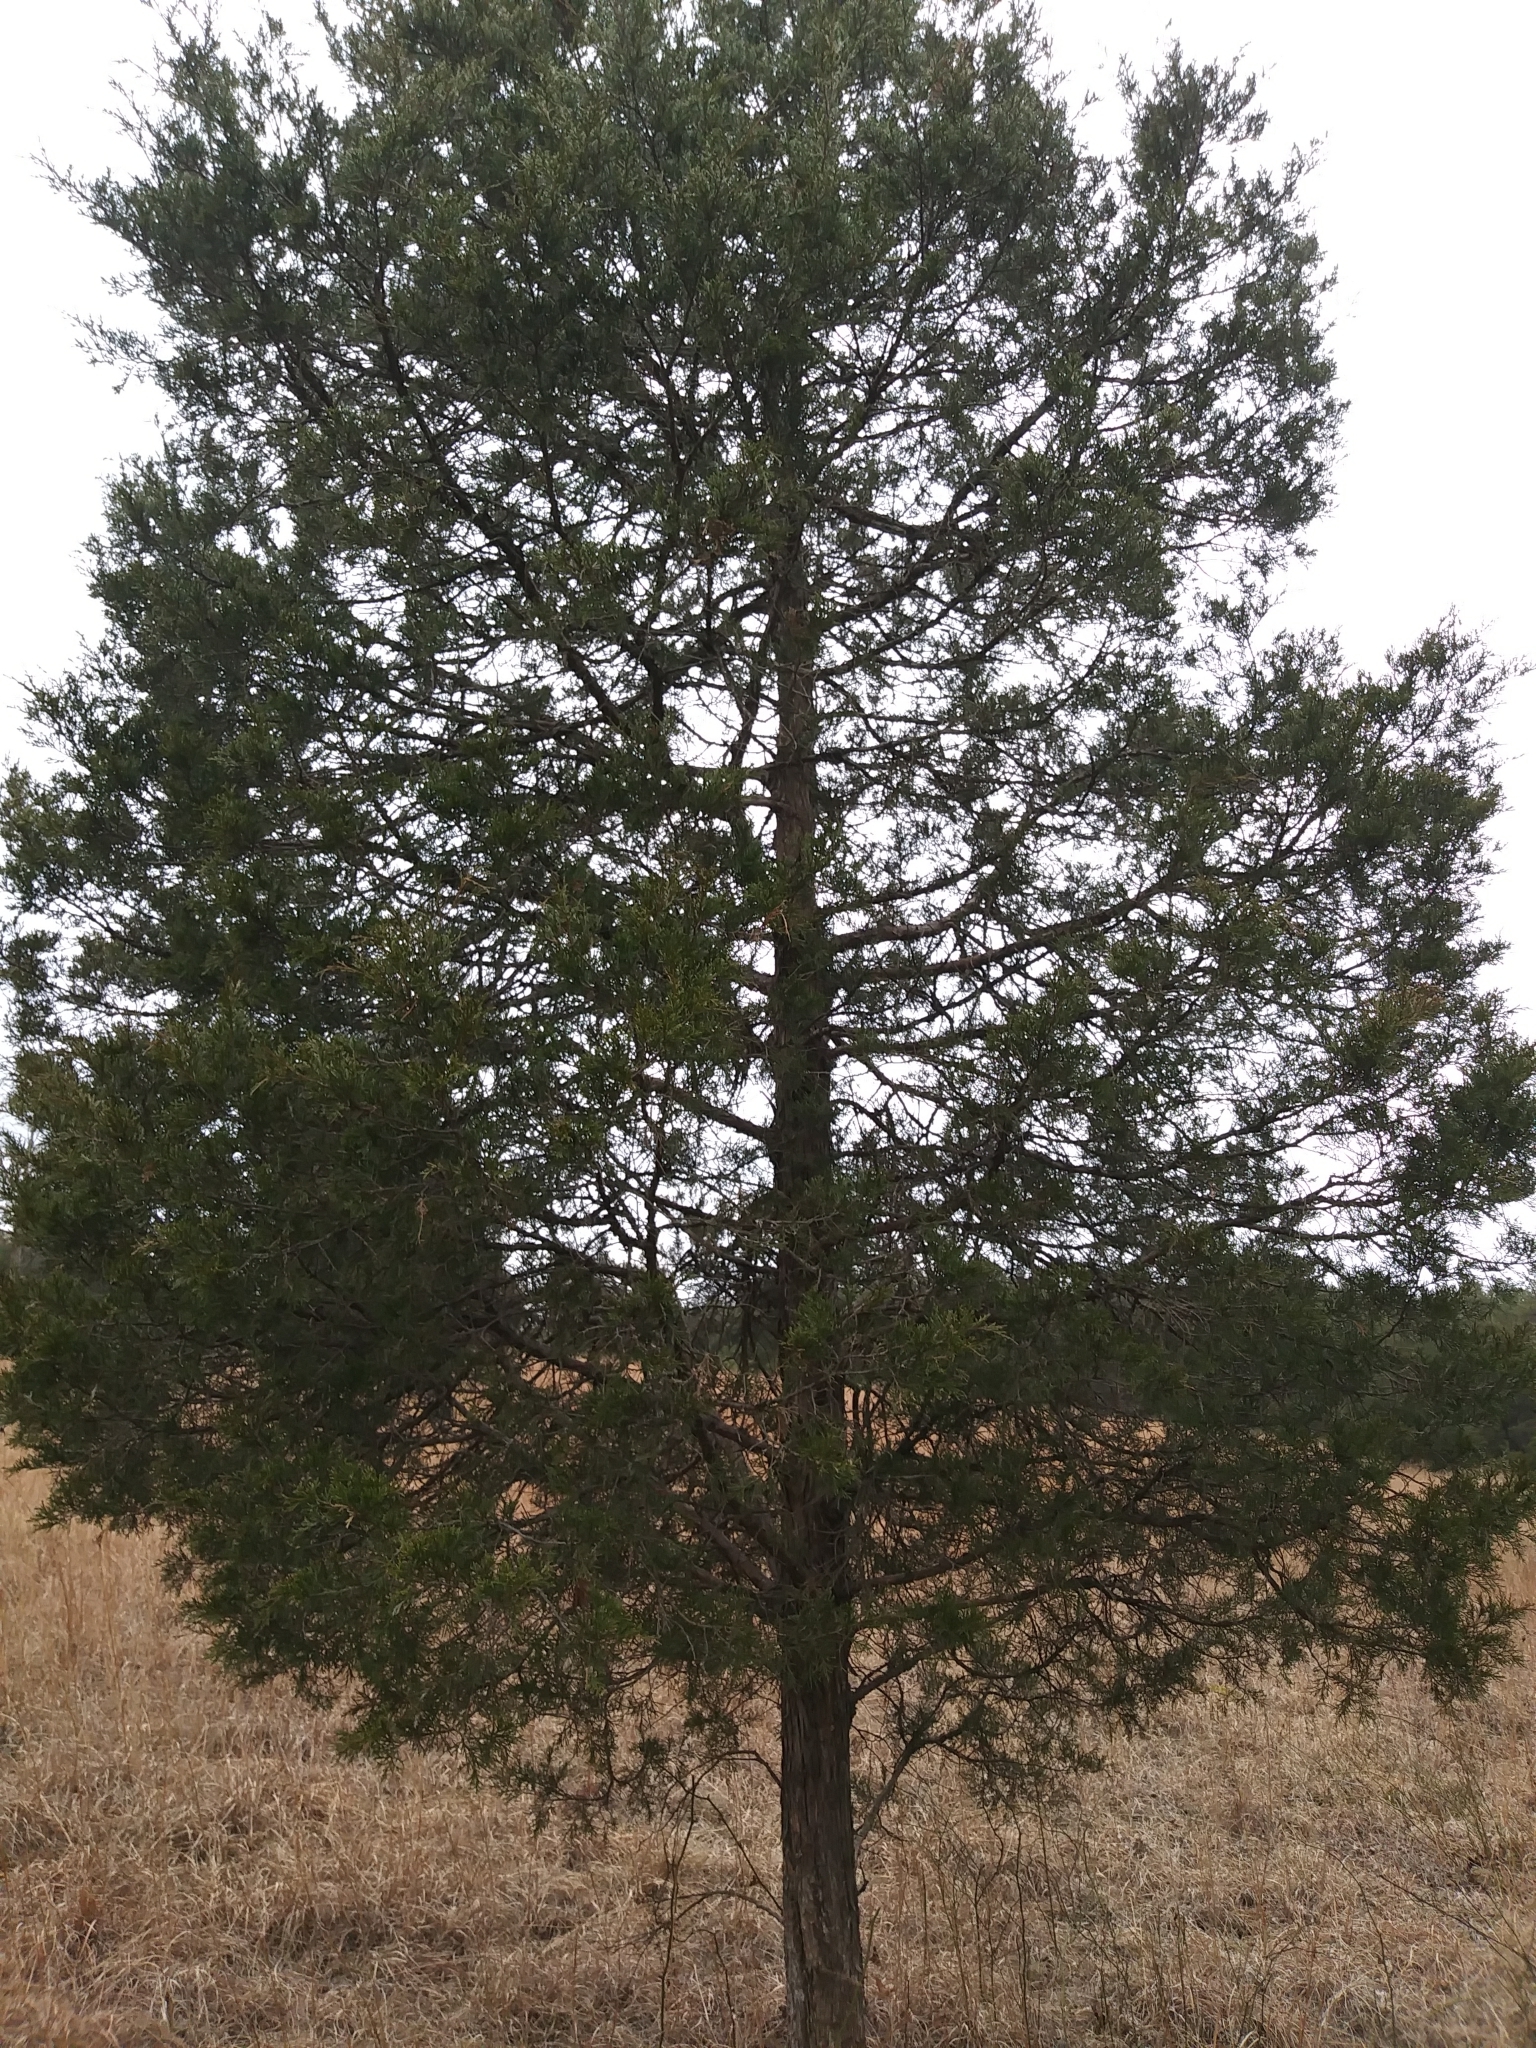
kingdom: Plantae
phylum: Tracheophyta
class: Pinopsida
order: Pinales
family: Cupressaceae
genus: Juniperus
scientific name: Juniperus virginiana
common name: Red juniper
